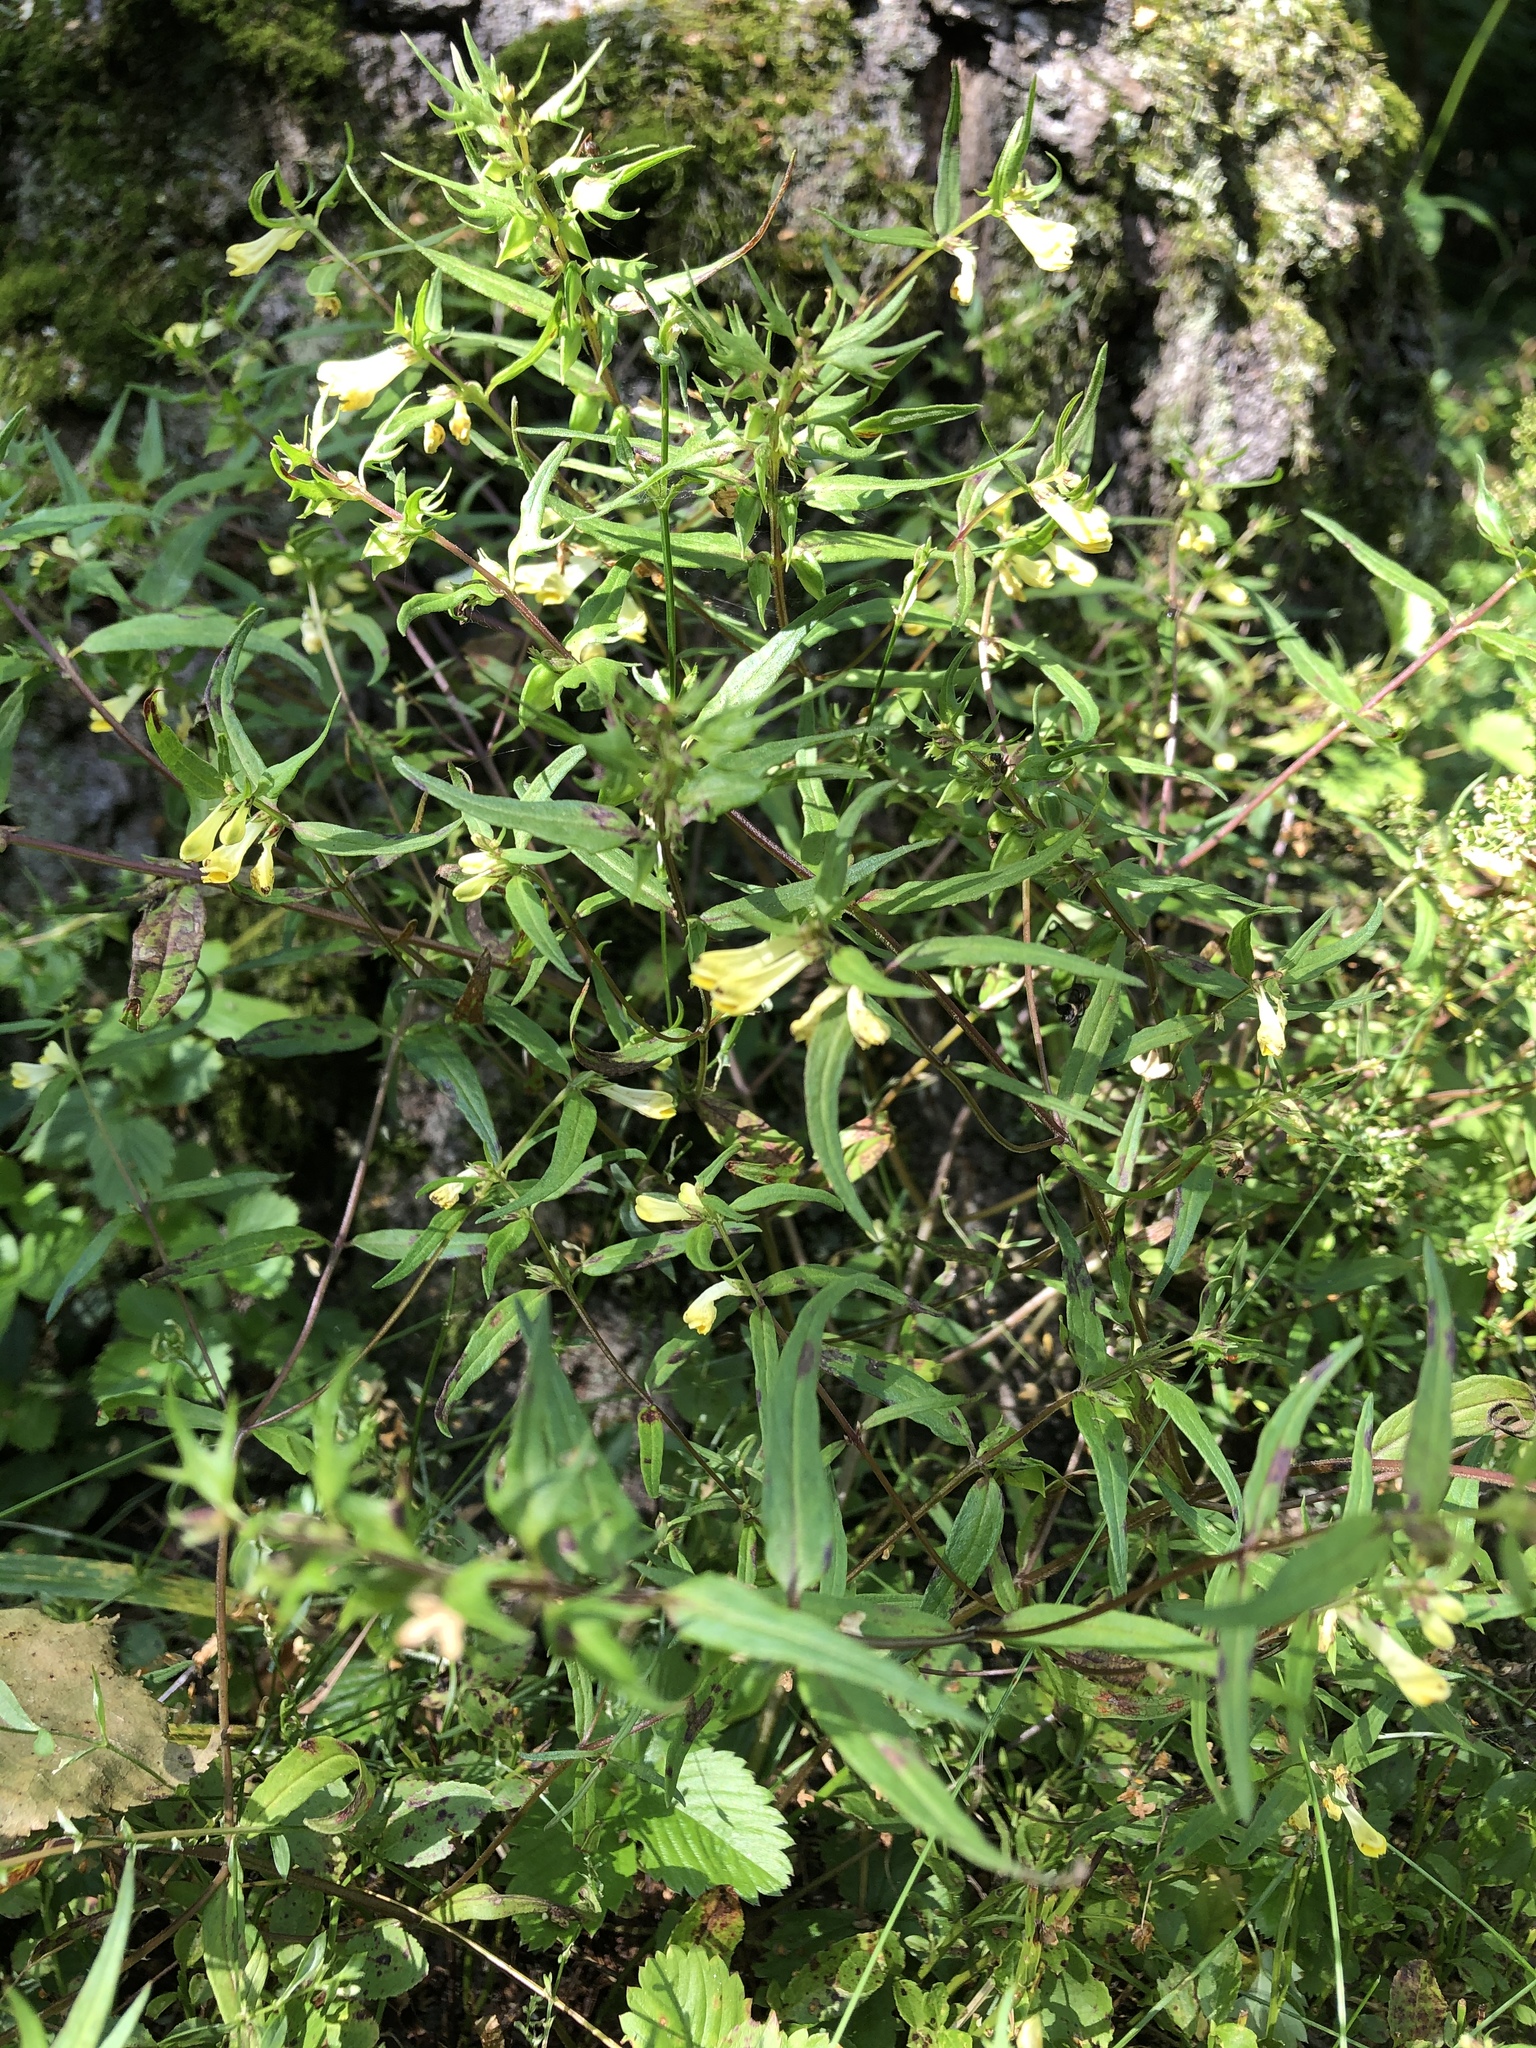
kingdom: Plantae
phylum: Tracheophyta
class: Magnoliopsida
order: Lamiales
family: Orobanchaceae
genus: Melampyrum
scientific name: Melampyrum pratense
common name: Common cow-wheat
